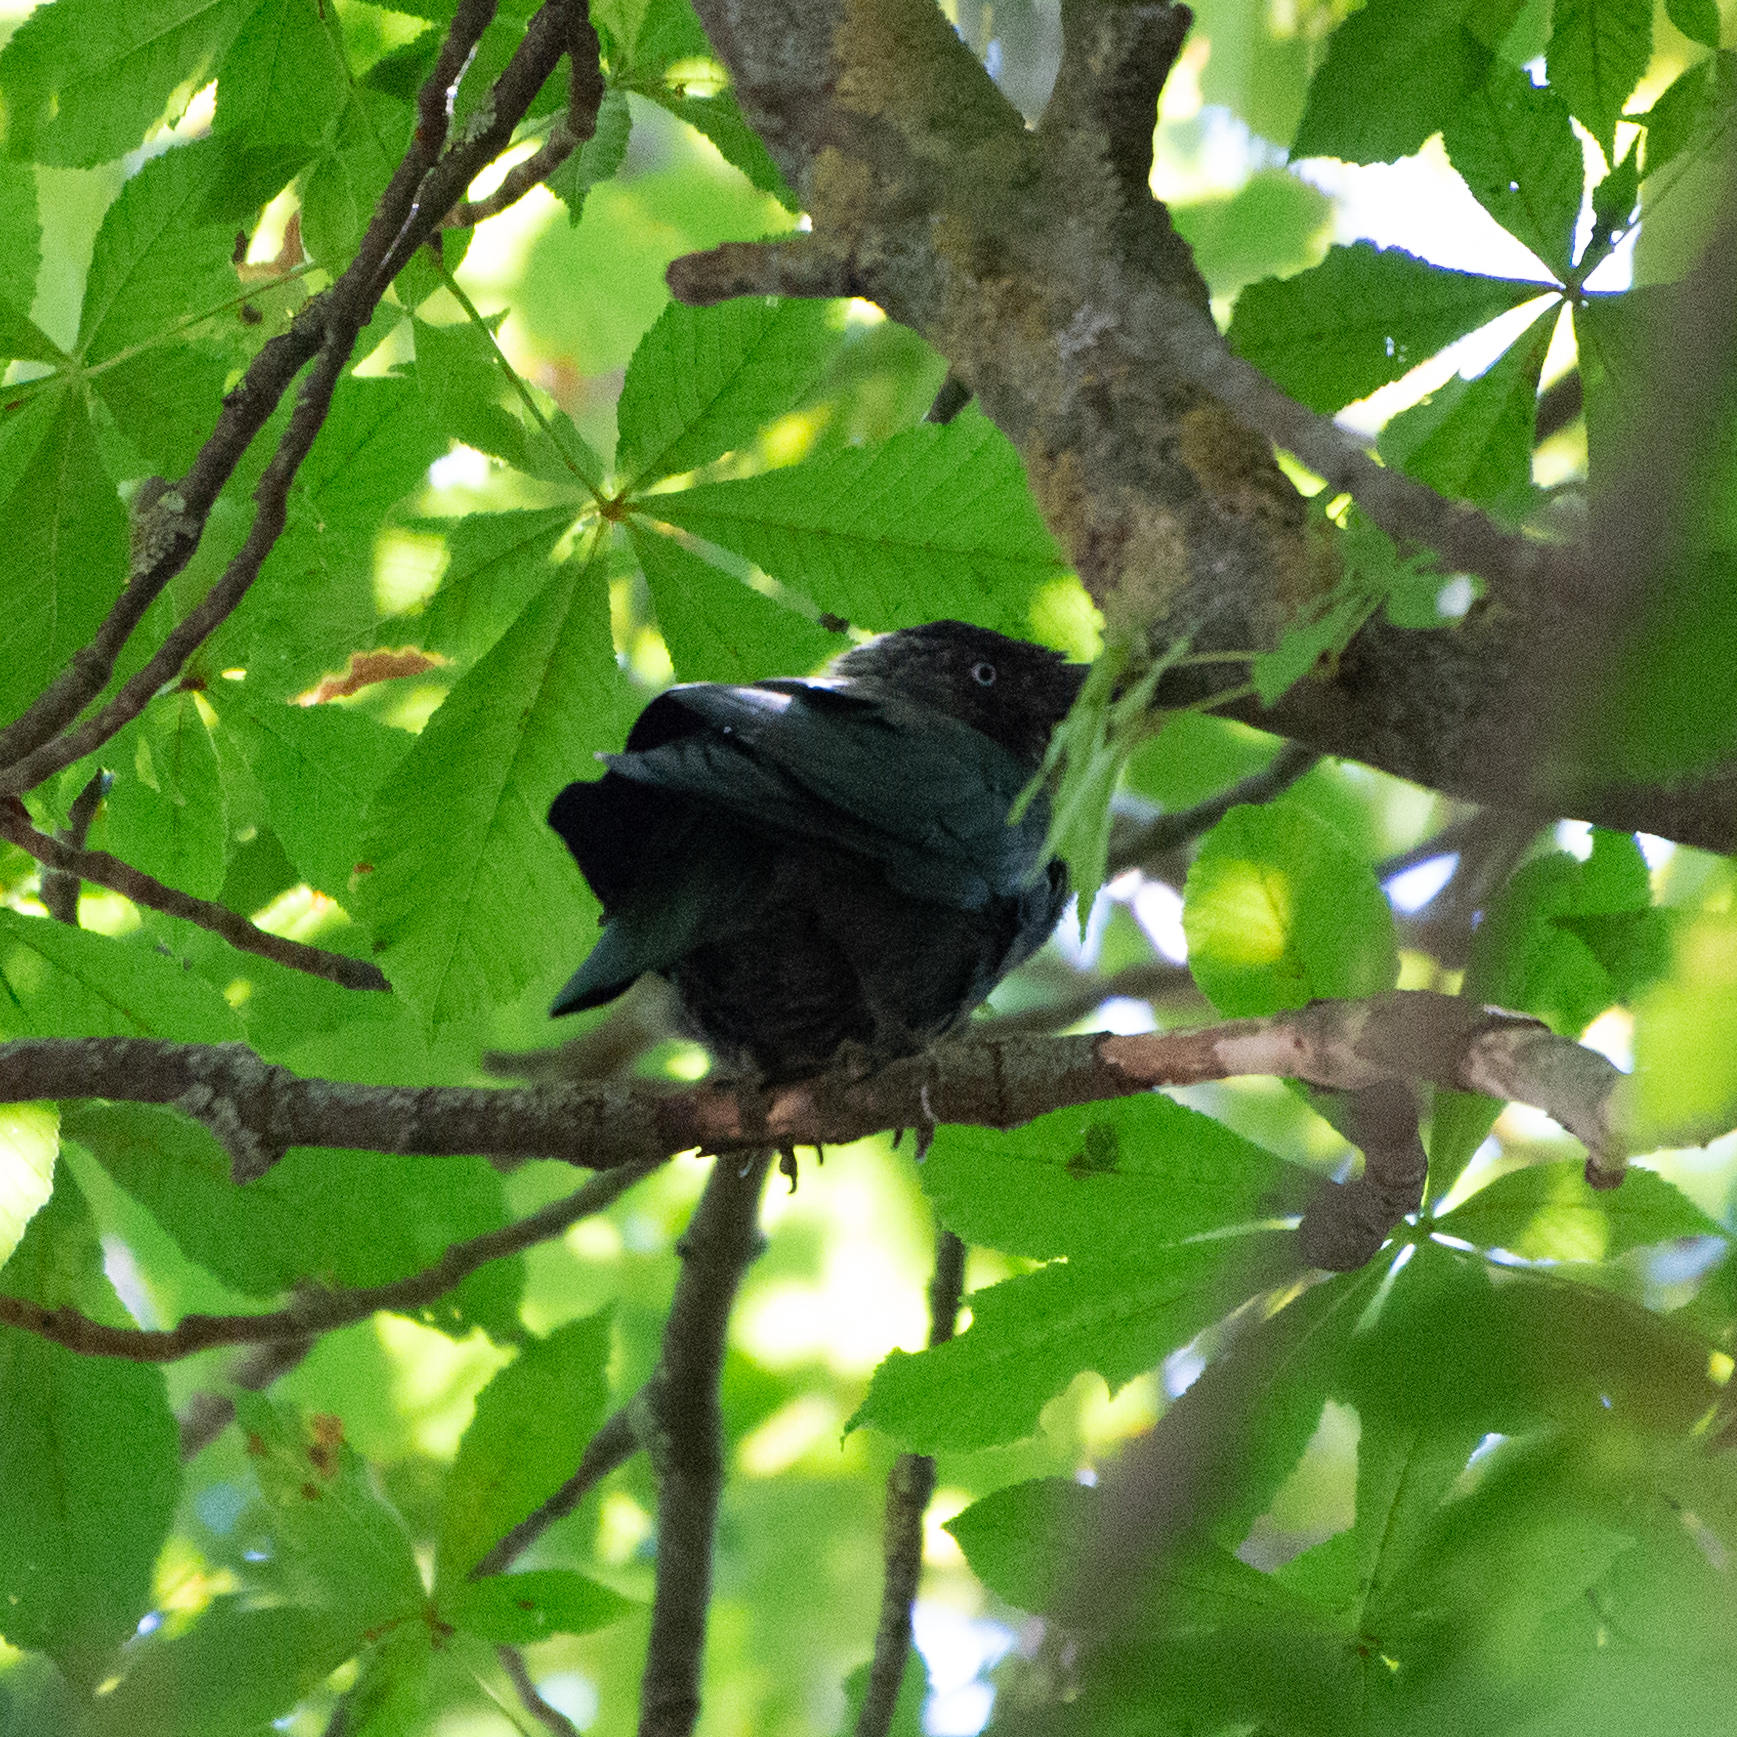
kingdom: Animalia
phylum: Chordata
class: Aves
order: Passeriformes
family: Corvidae
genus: Coloeus
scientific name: Coloeus monedula
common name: Western jackdaw
